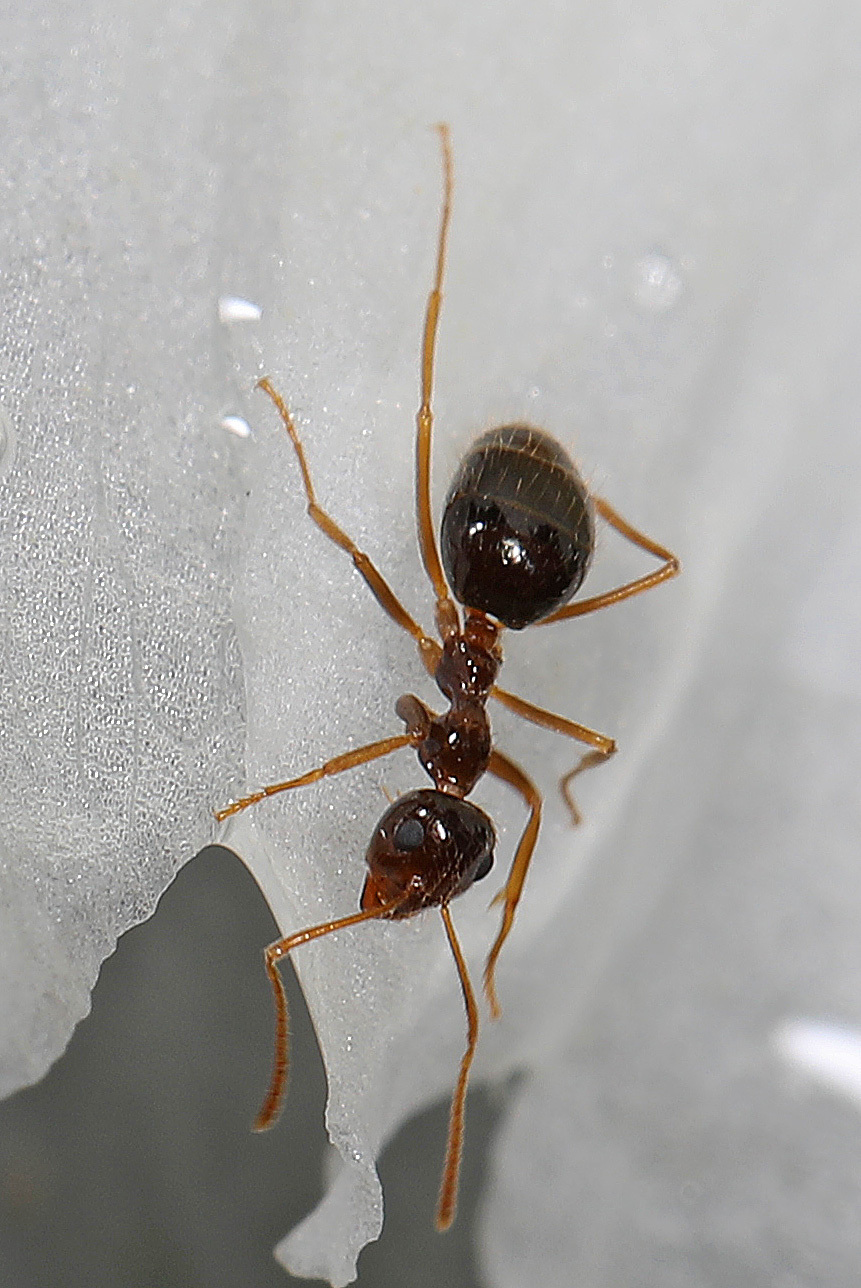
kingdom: Animalia
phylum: Arthropoda
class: Insecta
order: Hymenoptera
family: Formicidae
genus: Prenolepis
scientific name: Prenolepis imparis
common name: Small honey ant
